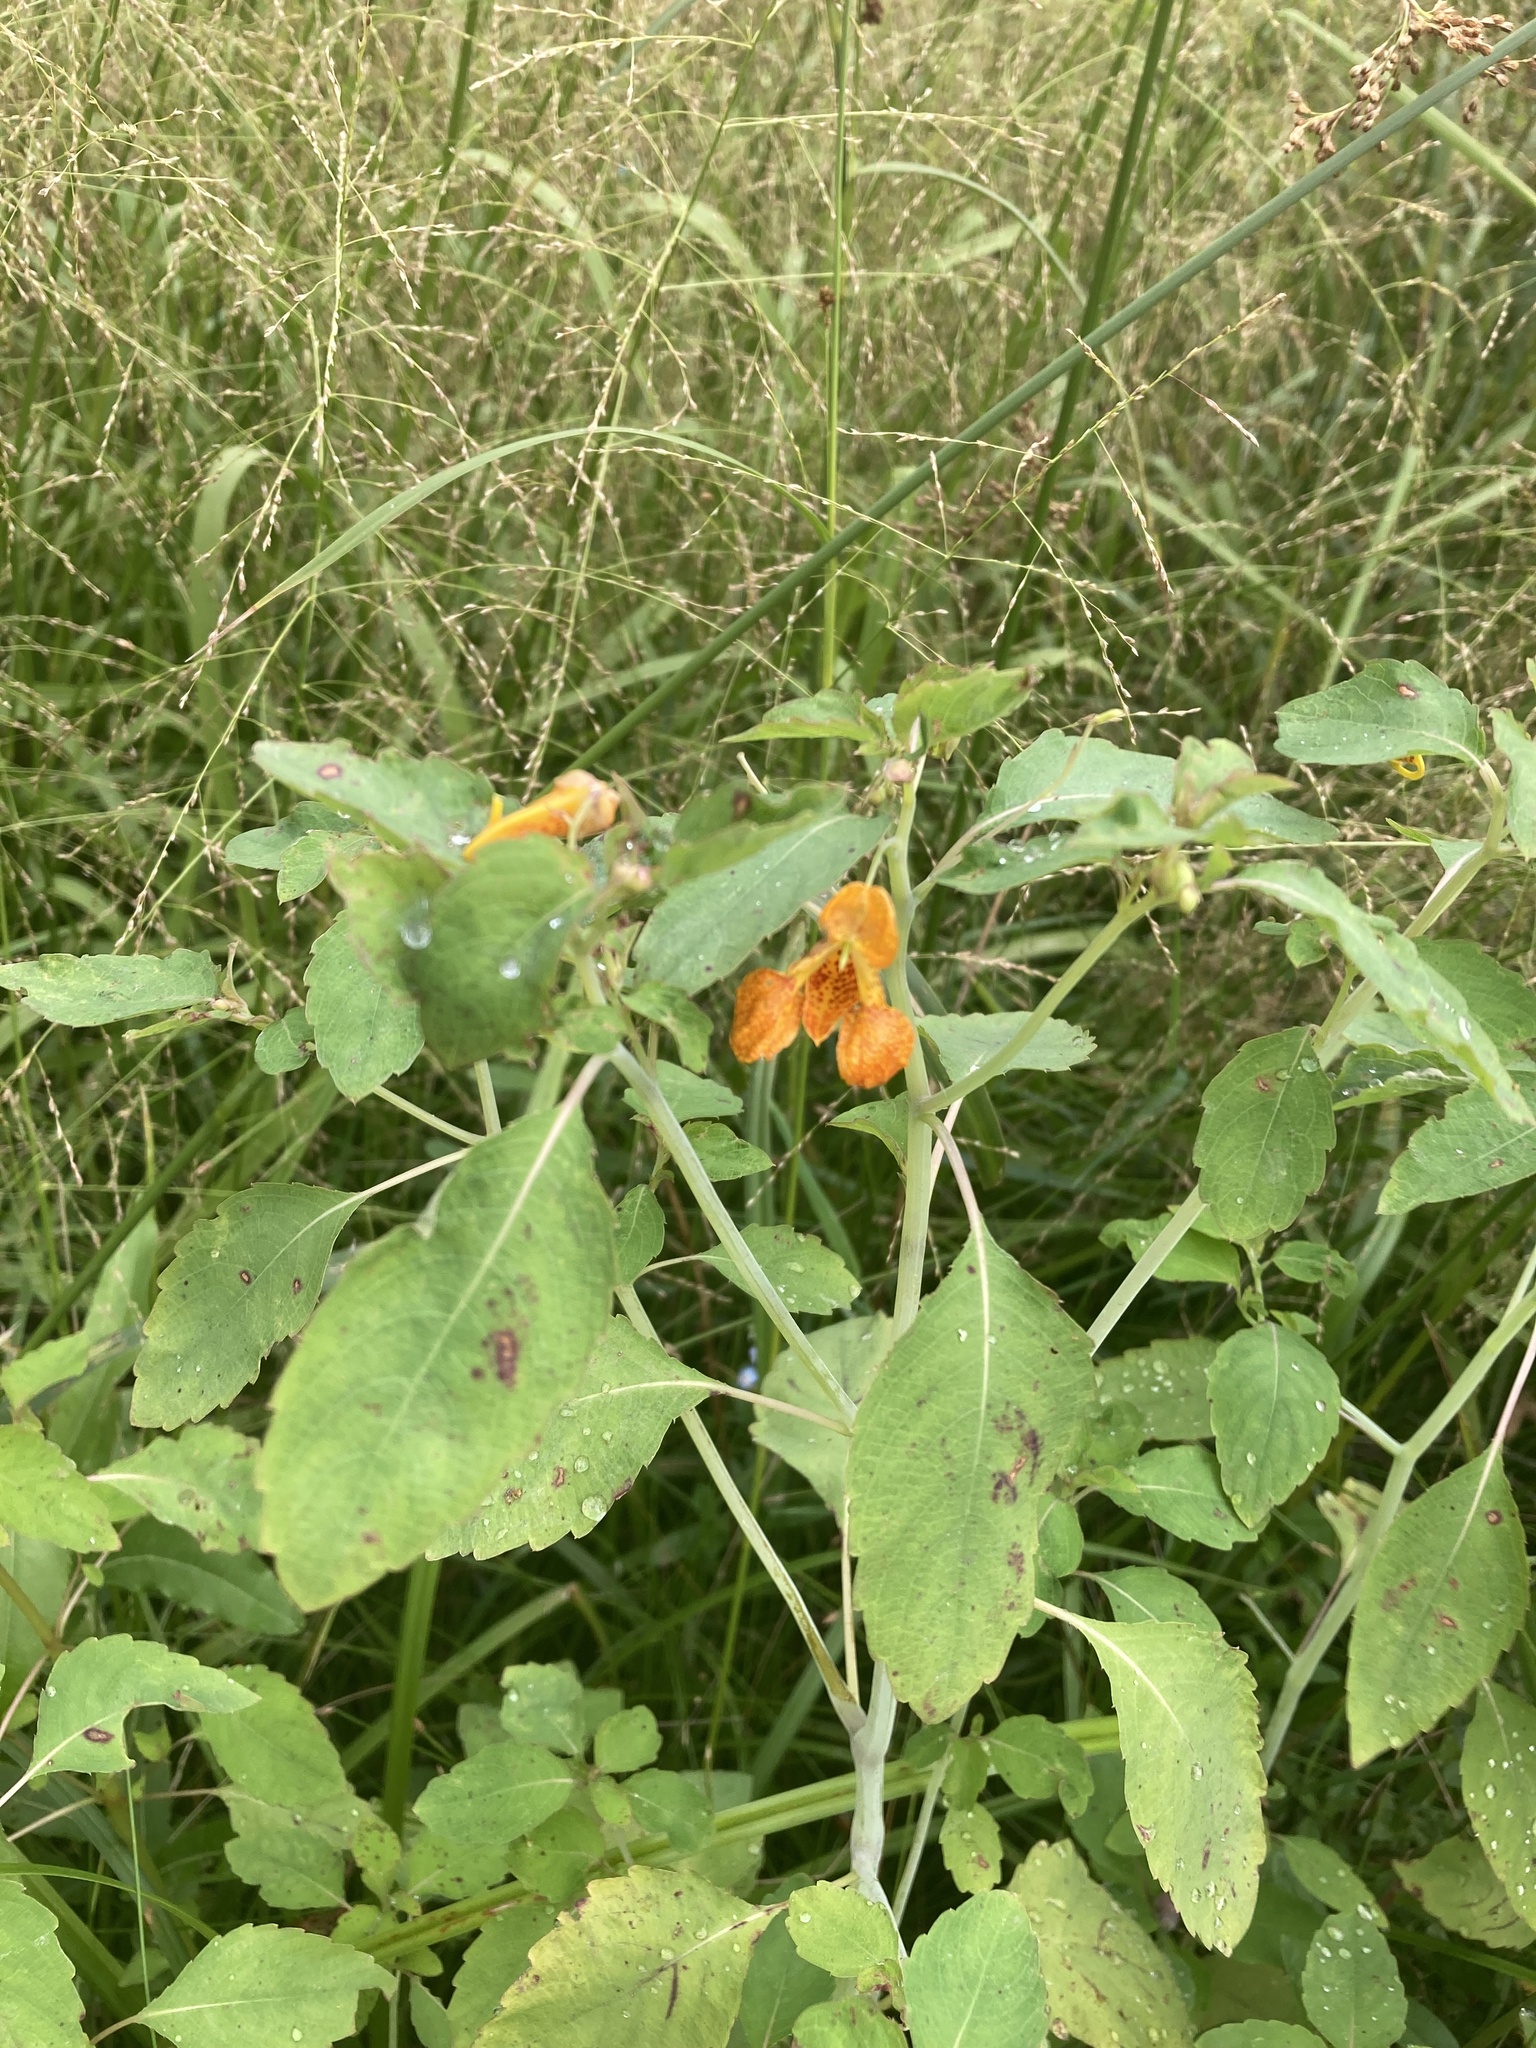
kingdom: Plantae
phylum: Tracheophyta
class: Magnoliopsida
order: Ericales
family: Balsaminaceae
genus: Impatiens
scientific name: Impatiens capensis
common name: Orange balsam
